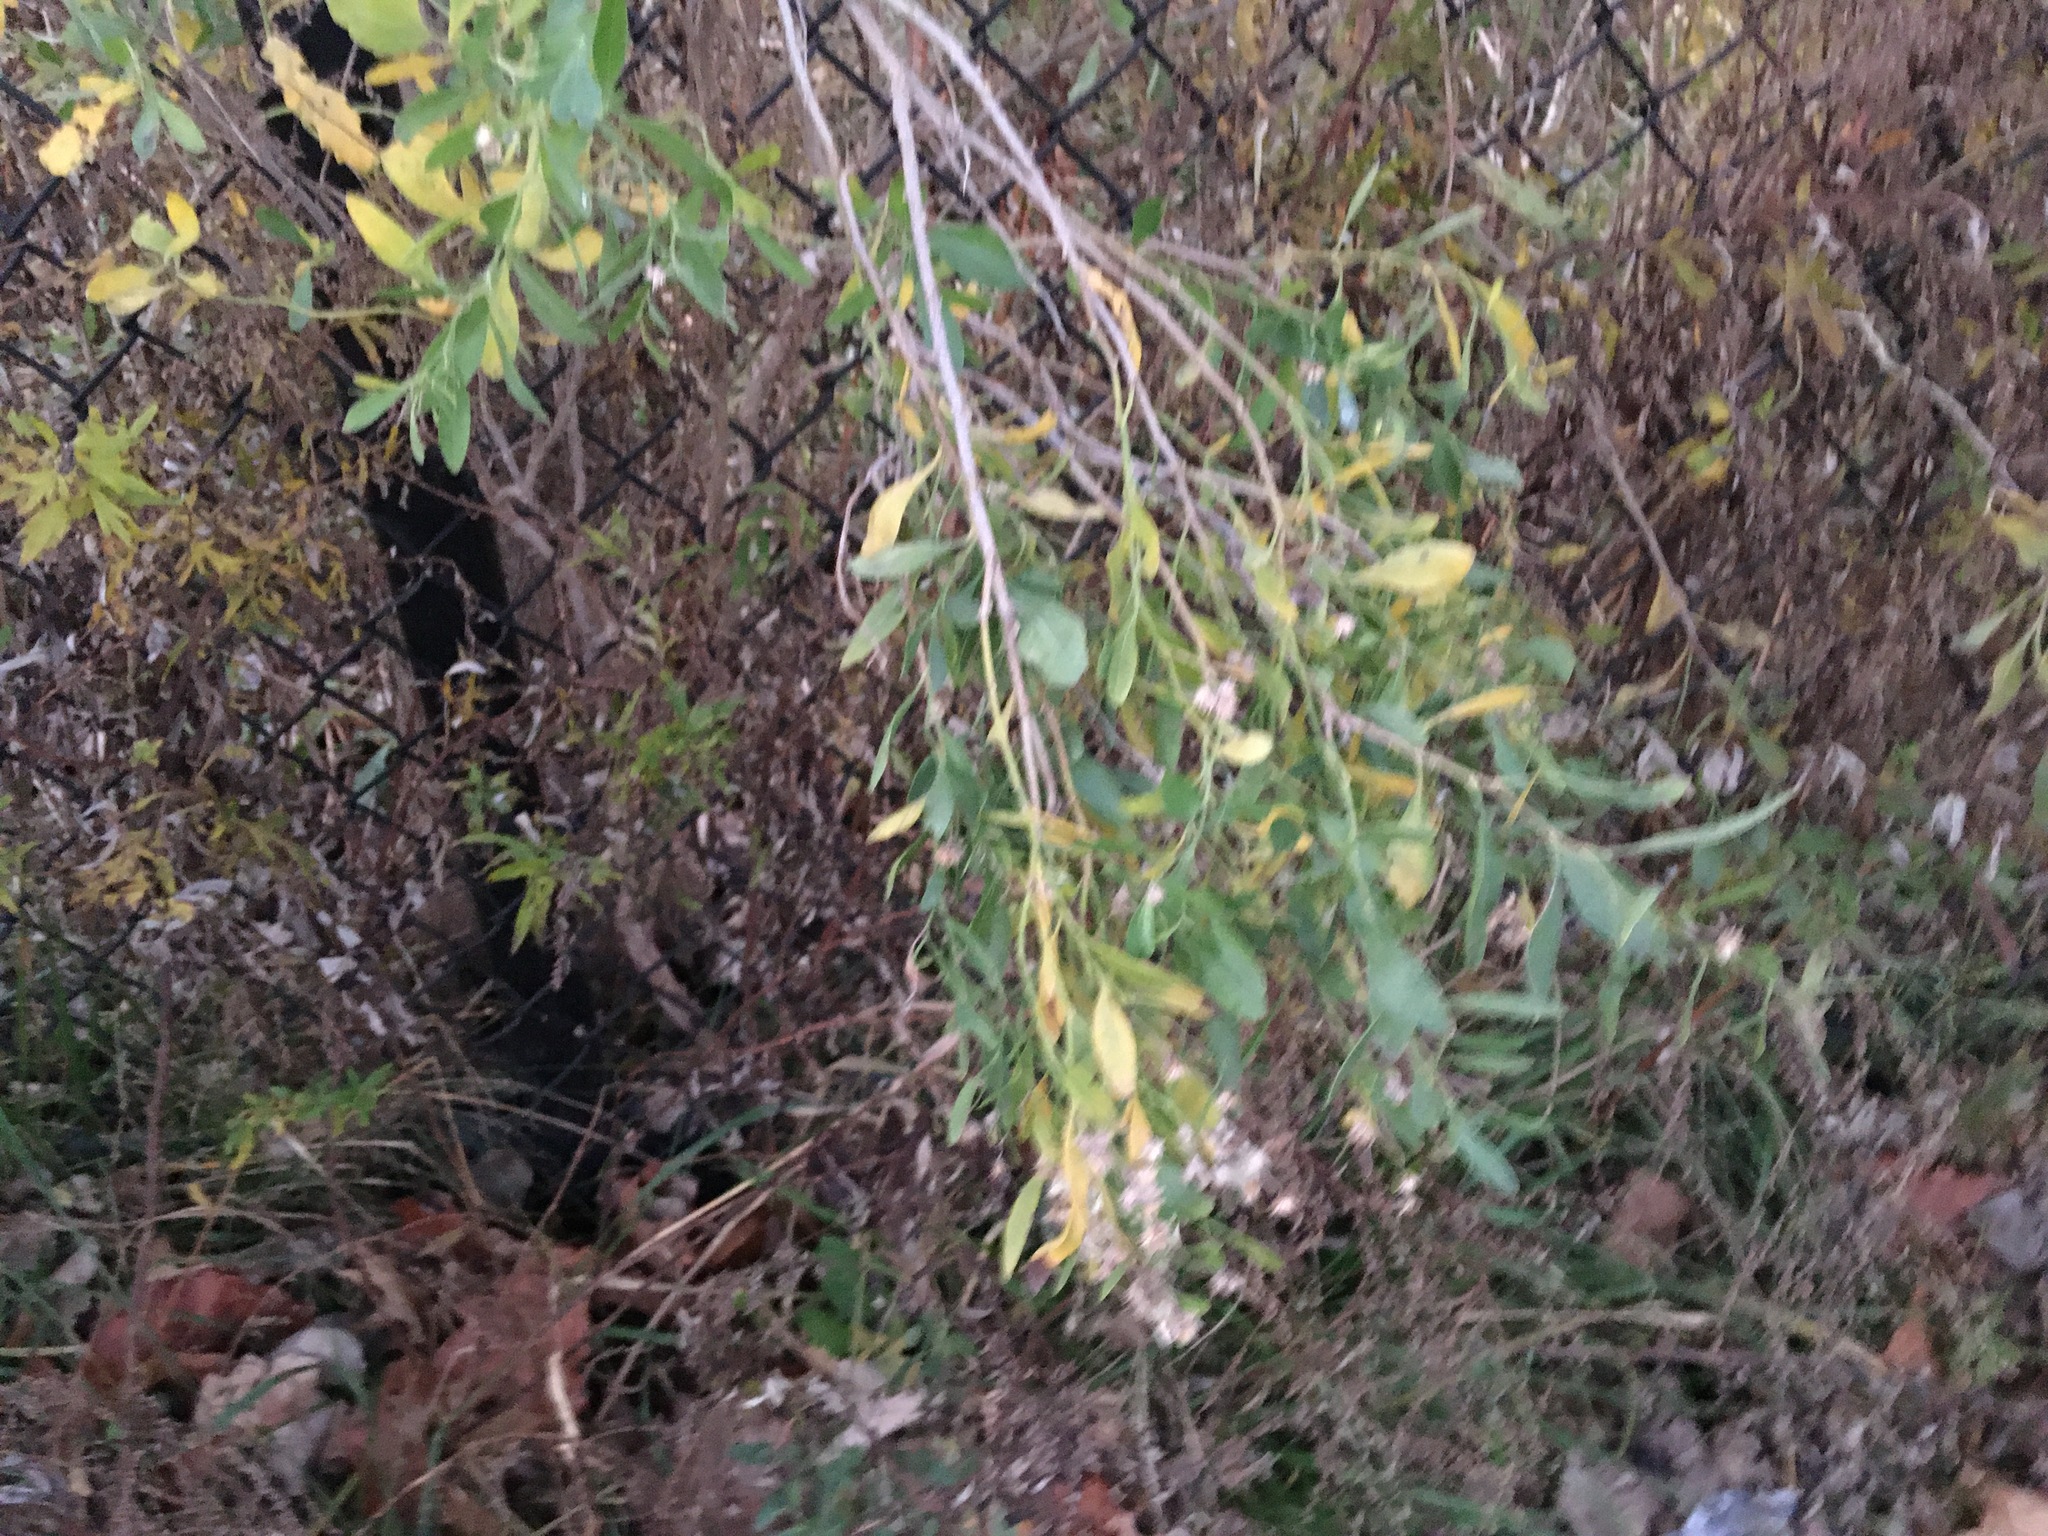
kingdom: Plantae
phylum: Tracheophyta
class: Magnoliopsida
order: Asterales
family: Asteraceae
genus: Baccharis
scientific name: Baccharis halimifolia
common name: Eastern baccharis
